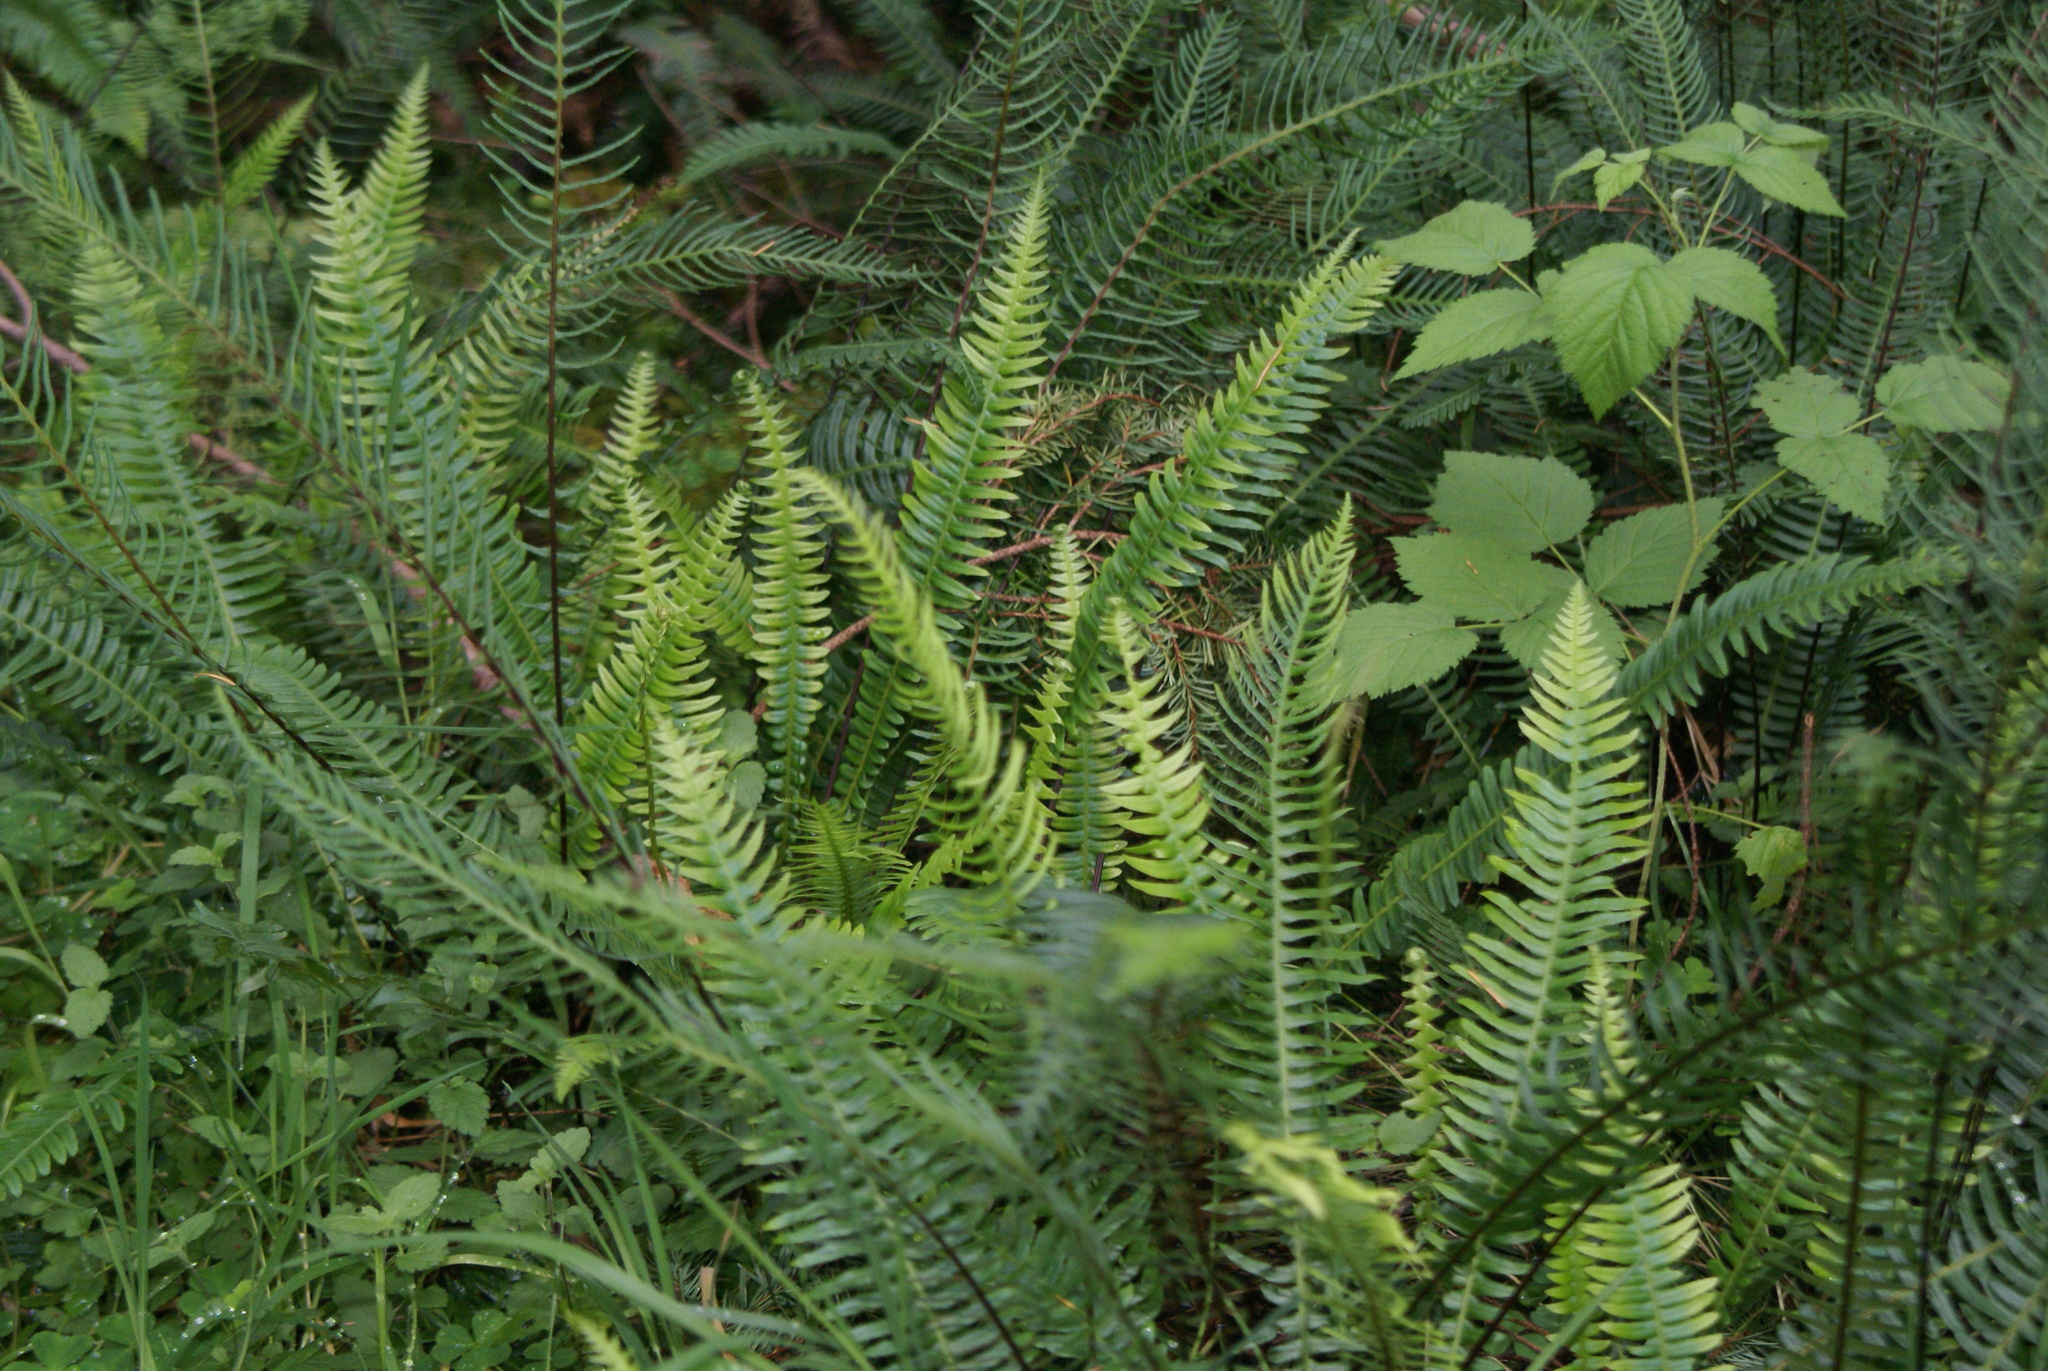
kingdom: Plantae
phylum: Tracheophyta
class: Polypodiopsida
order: Polypodiales
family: Blechnaceae
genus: Struthiopteris
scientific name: Struthiopteris spicant
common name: Deer fern
